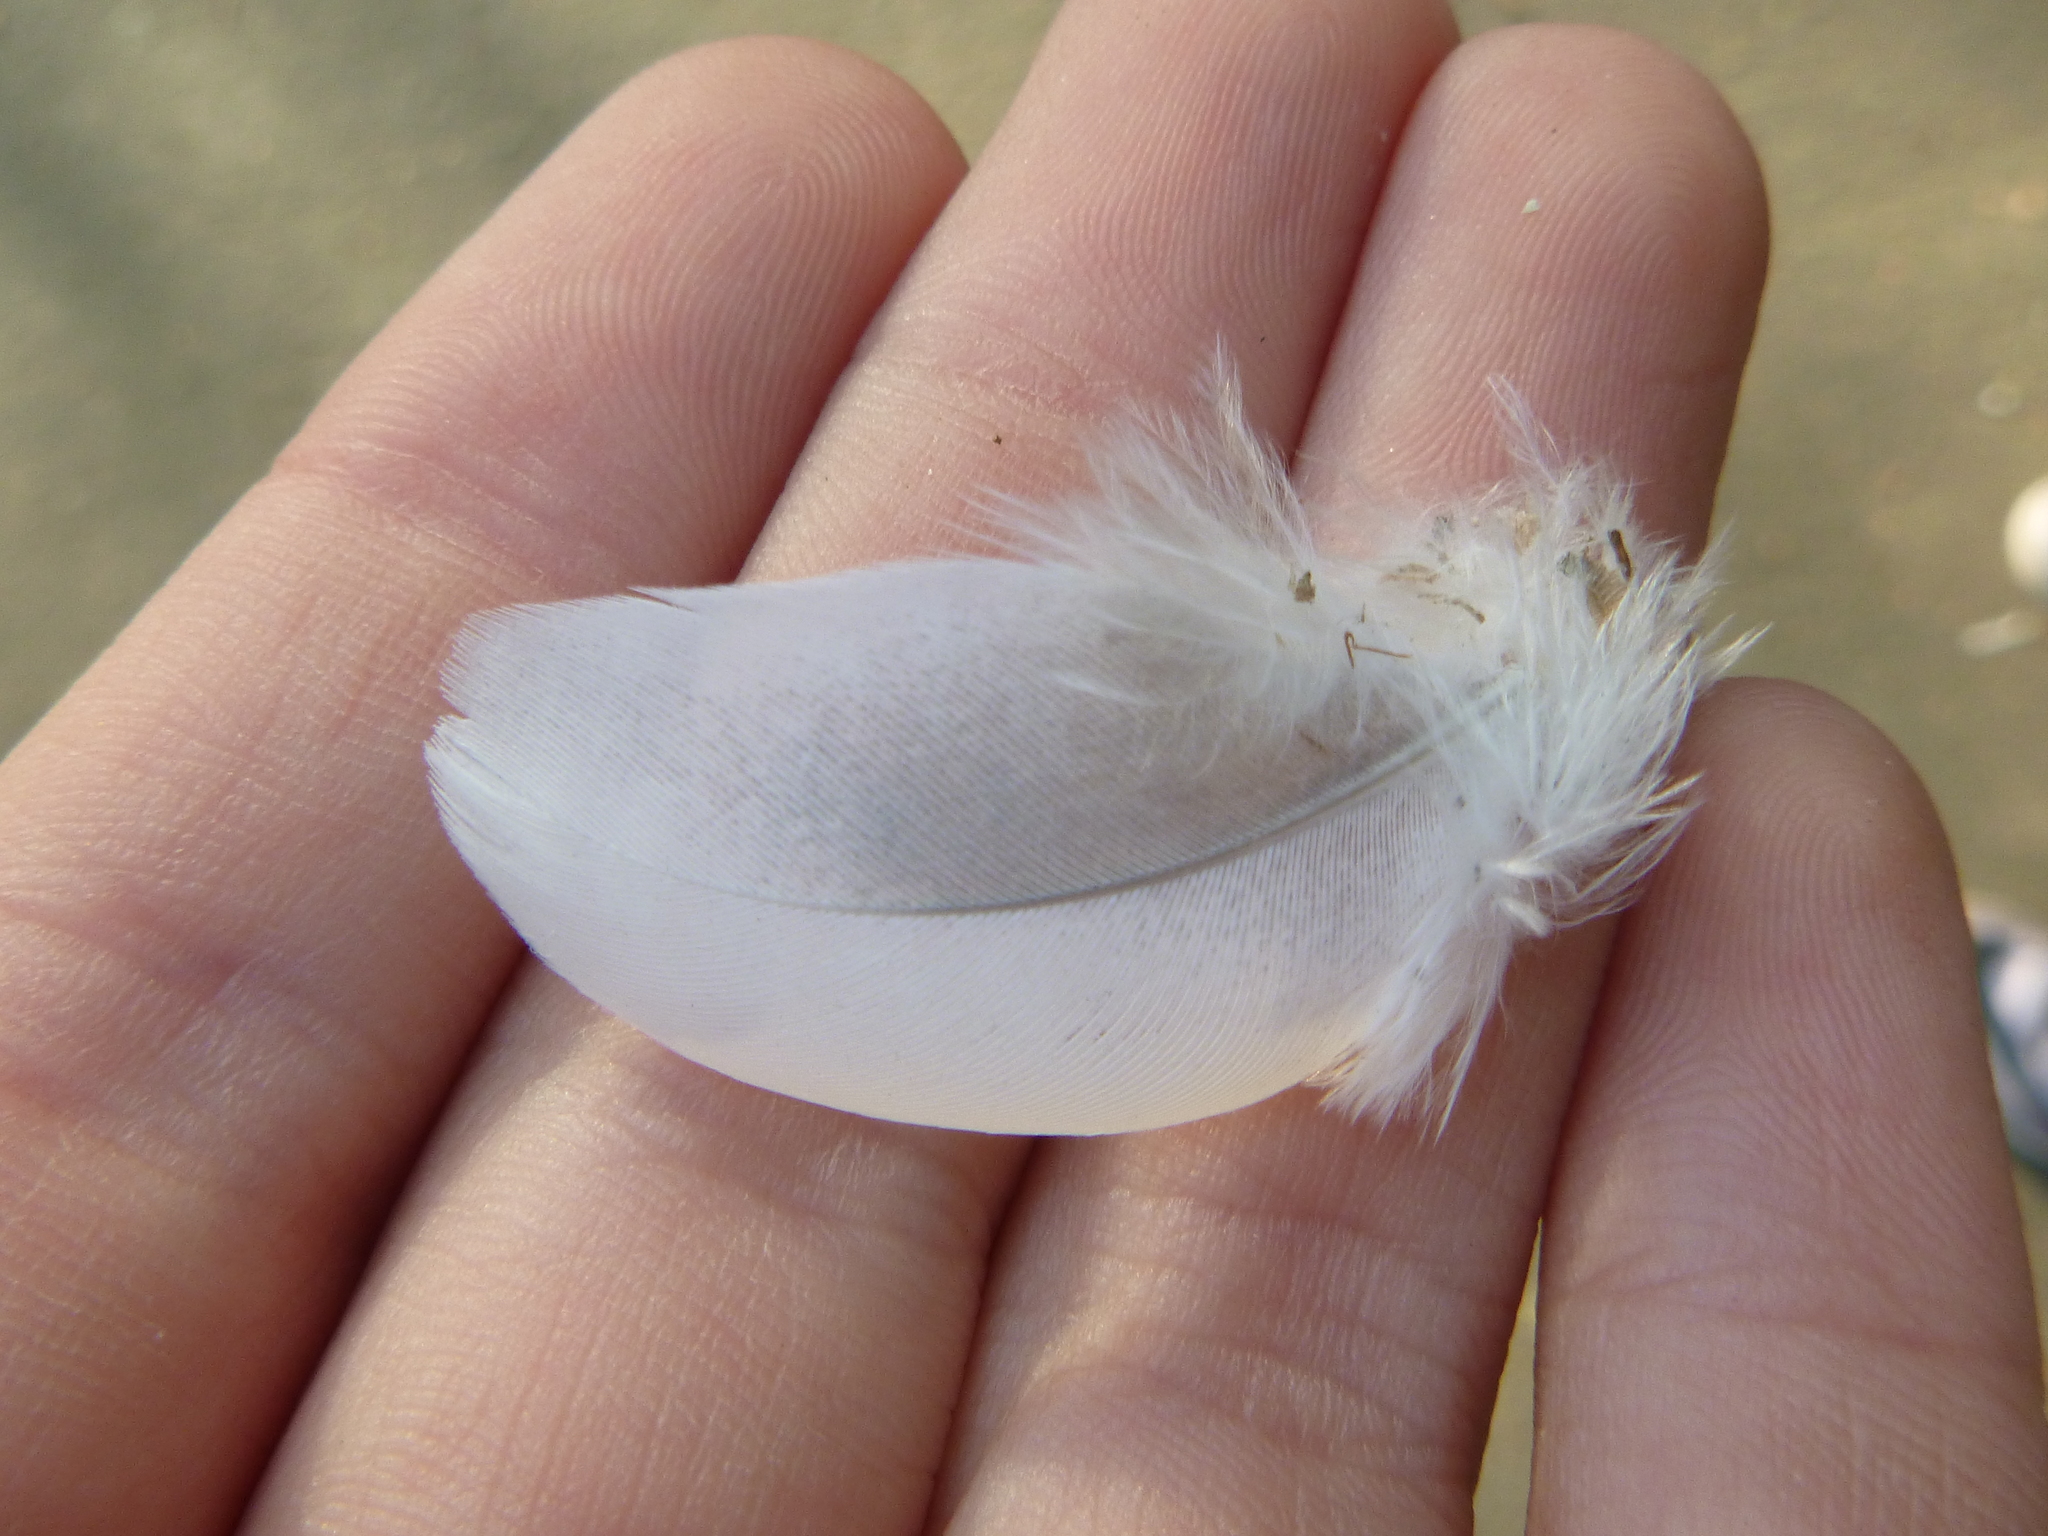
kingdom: Animalia
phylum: Chordata
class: Aves
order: Columbiformes
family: Columbidae
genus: Columba
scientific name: Columba livia
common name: Rock pigeon
